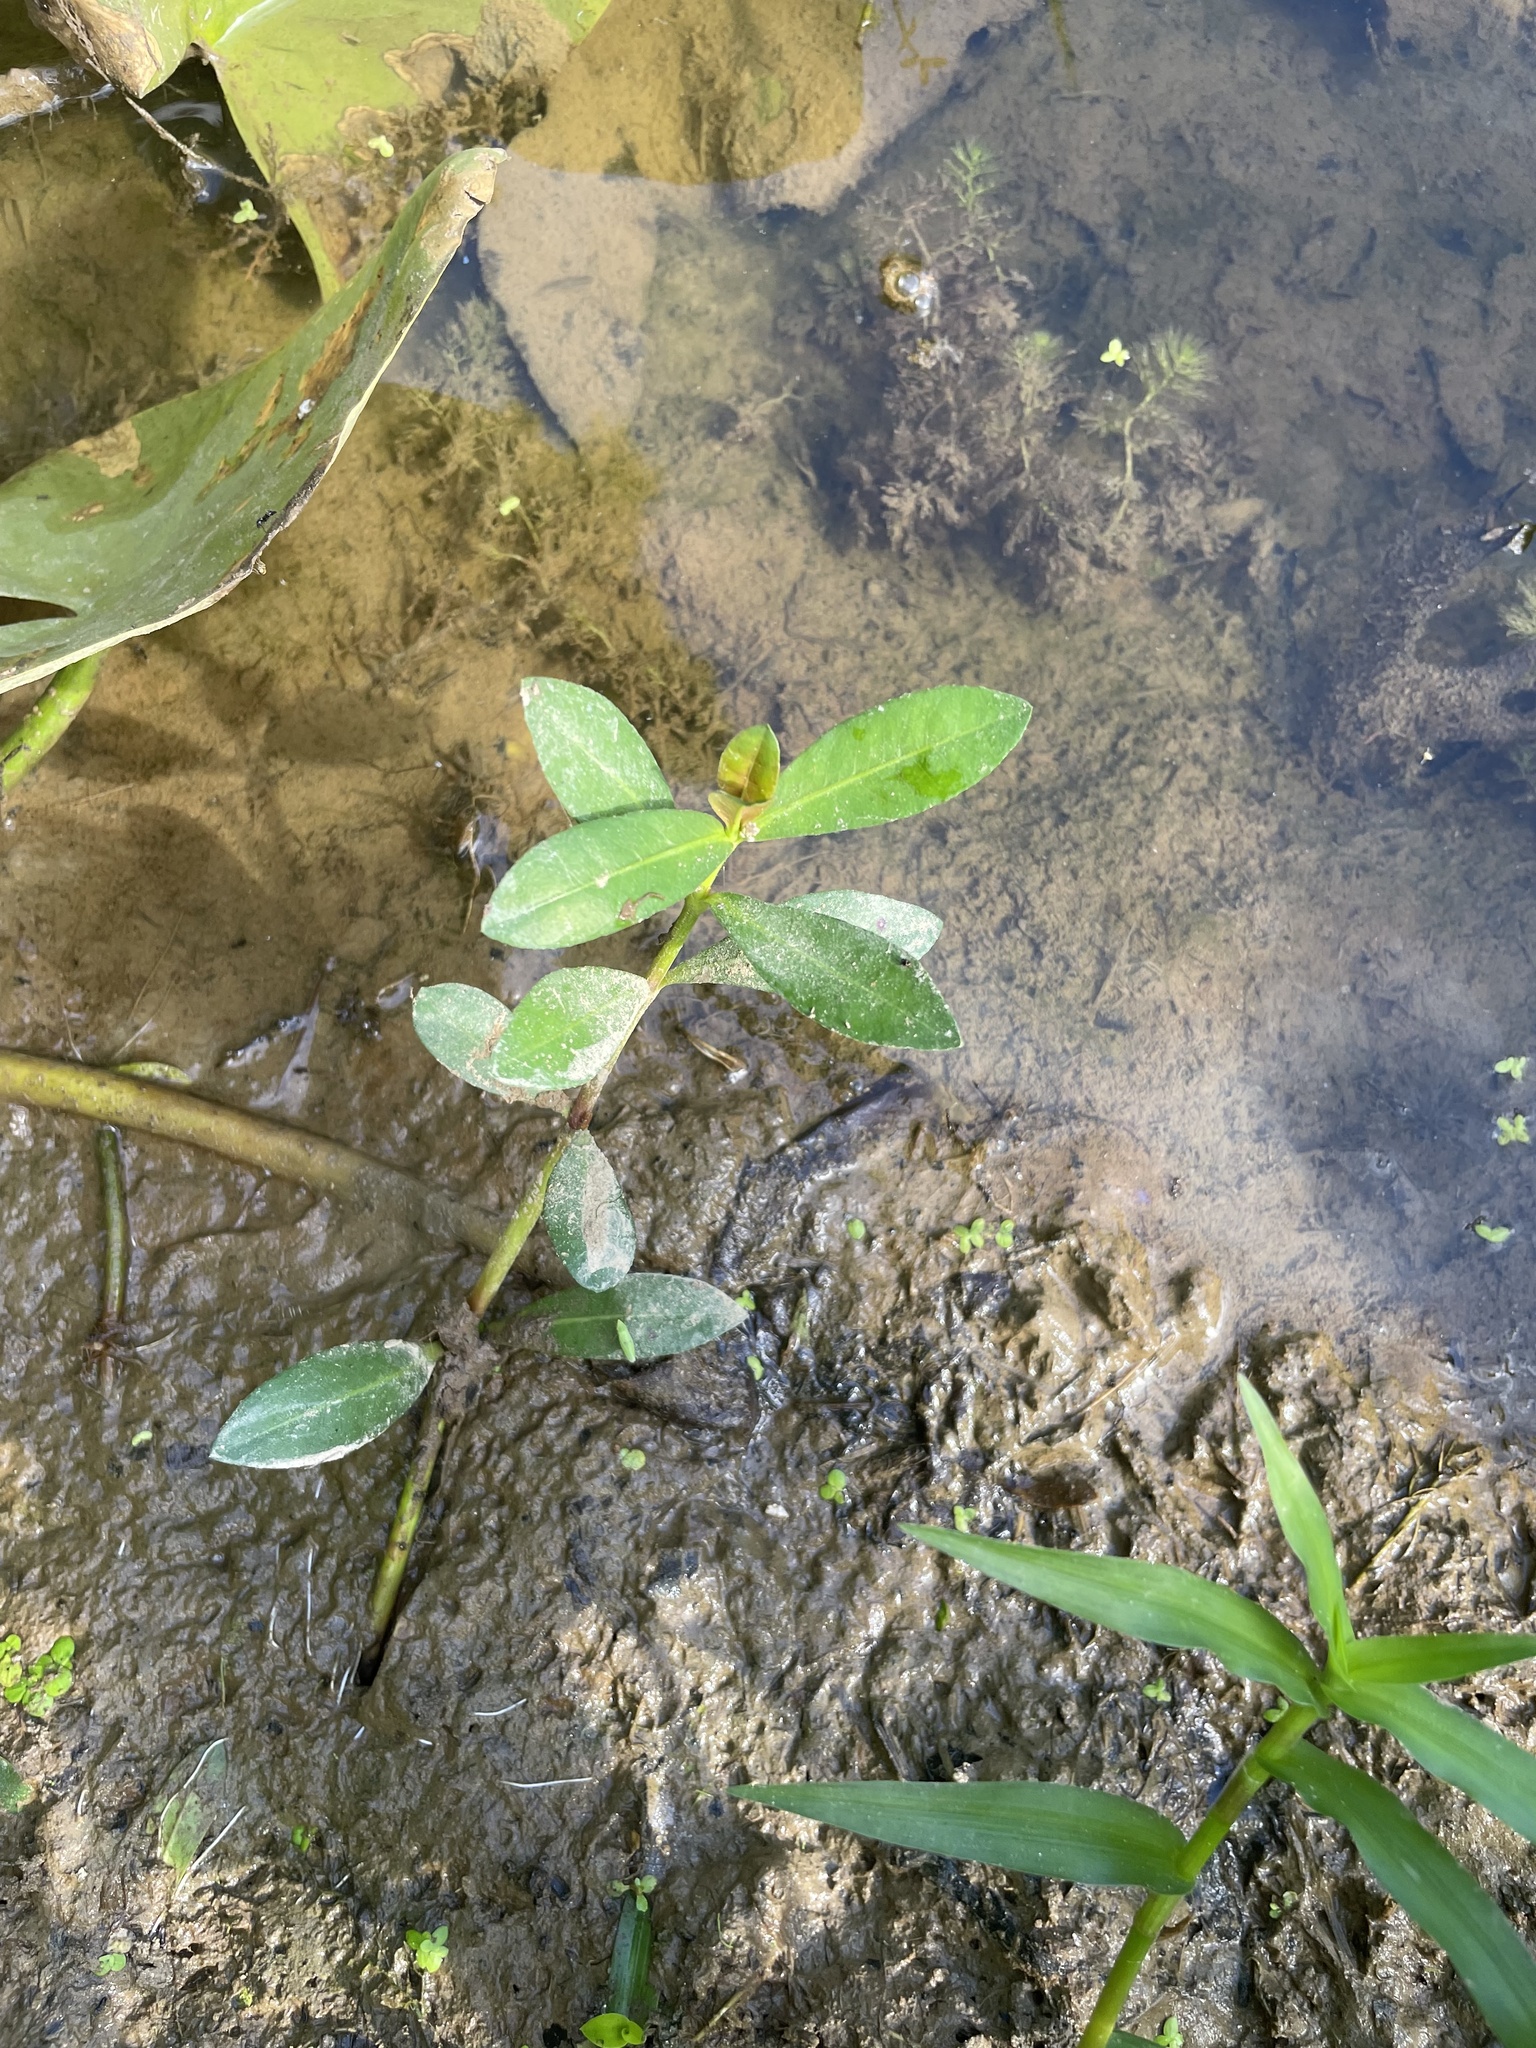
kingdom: Plantae
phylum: Tracheophyta
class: Magnoliopsida
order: Caryophyllales
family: Amaranthaceae
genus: Alternanthera
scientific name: Alternanthera philoxeroides
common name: Alligatorweed
